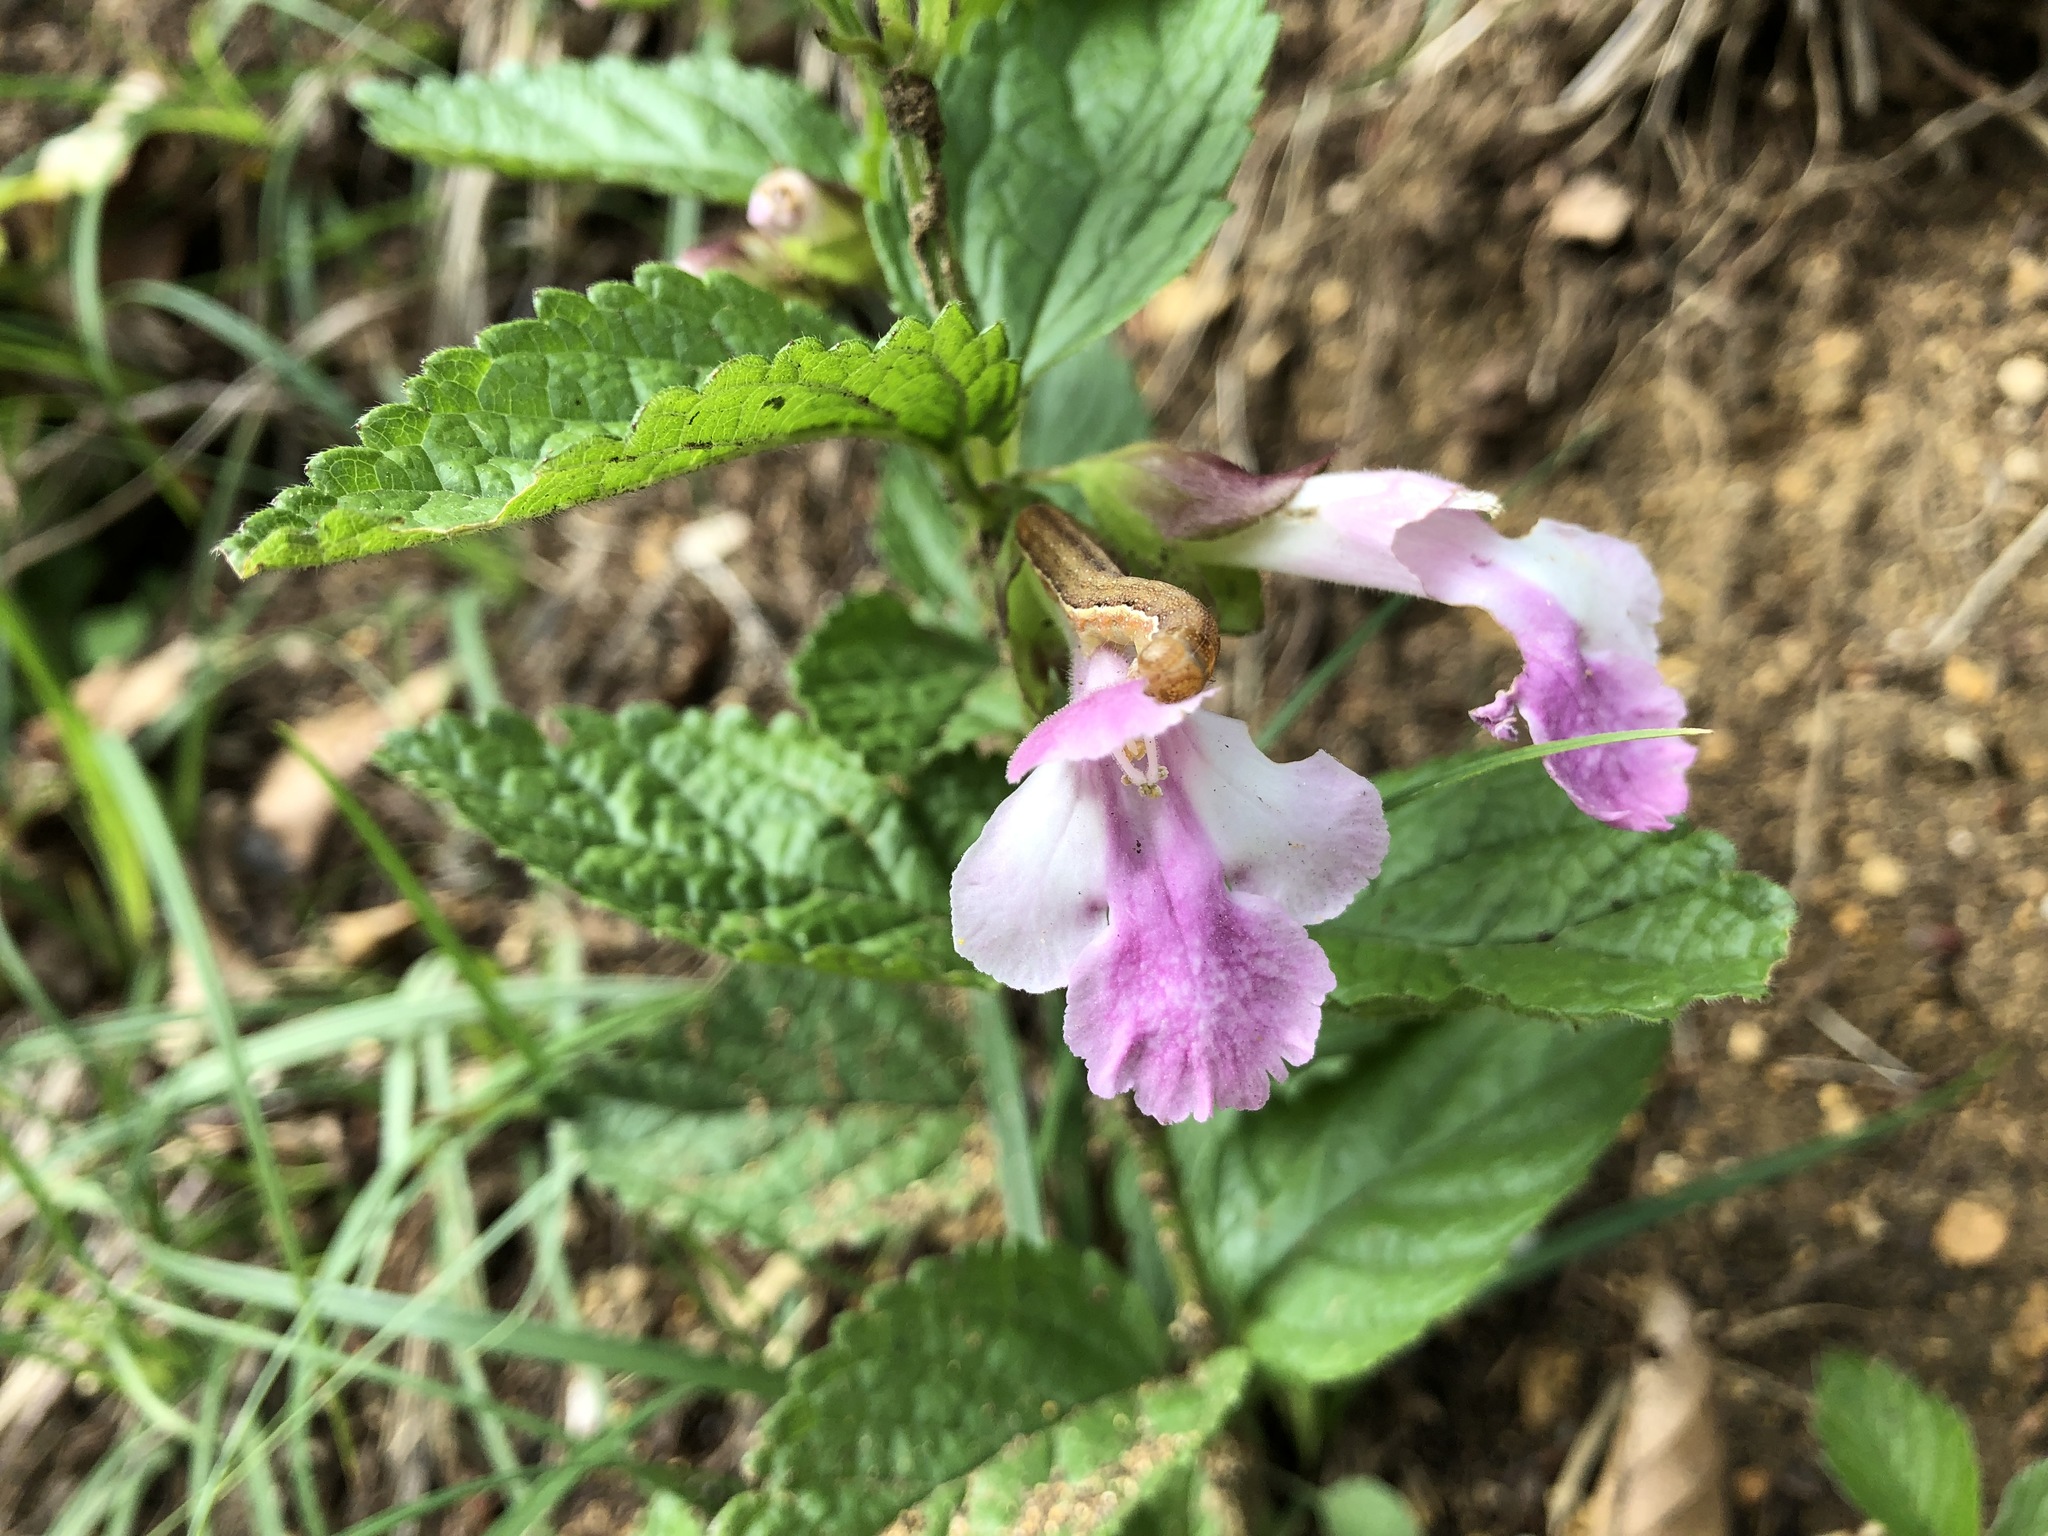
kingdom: Plantae
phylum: Tracheophyta
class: Magnoliopsida
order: Lamiales
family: Lamiaceae
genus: Melittis
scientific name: Melittis melissophyllum
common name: Bastard balm
